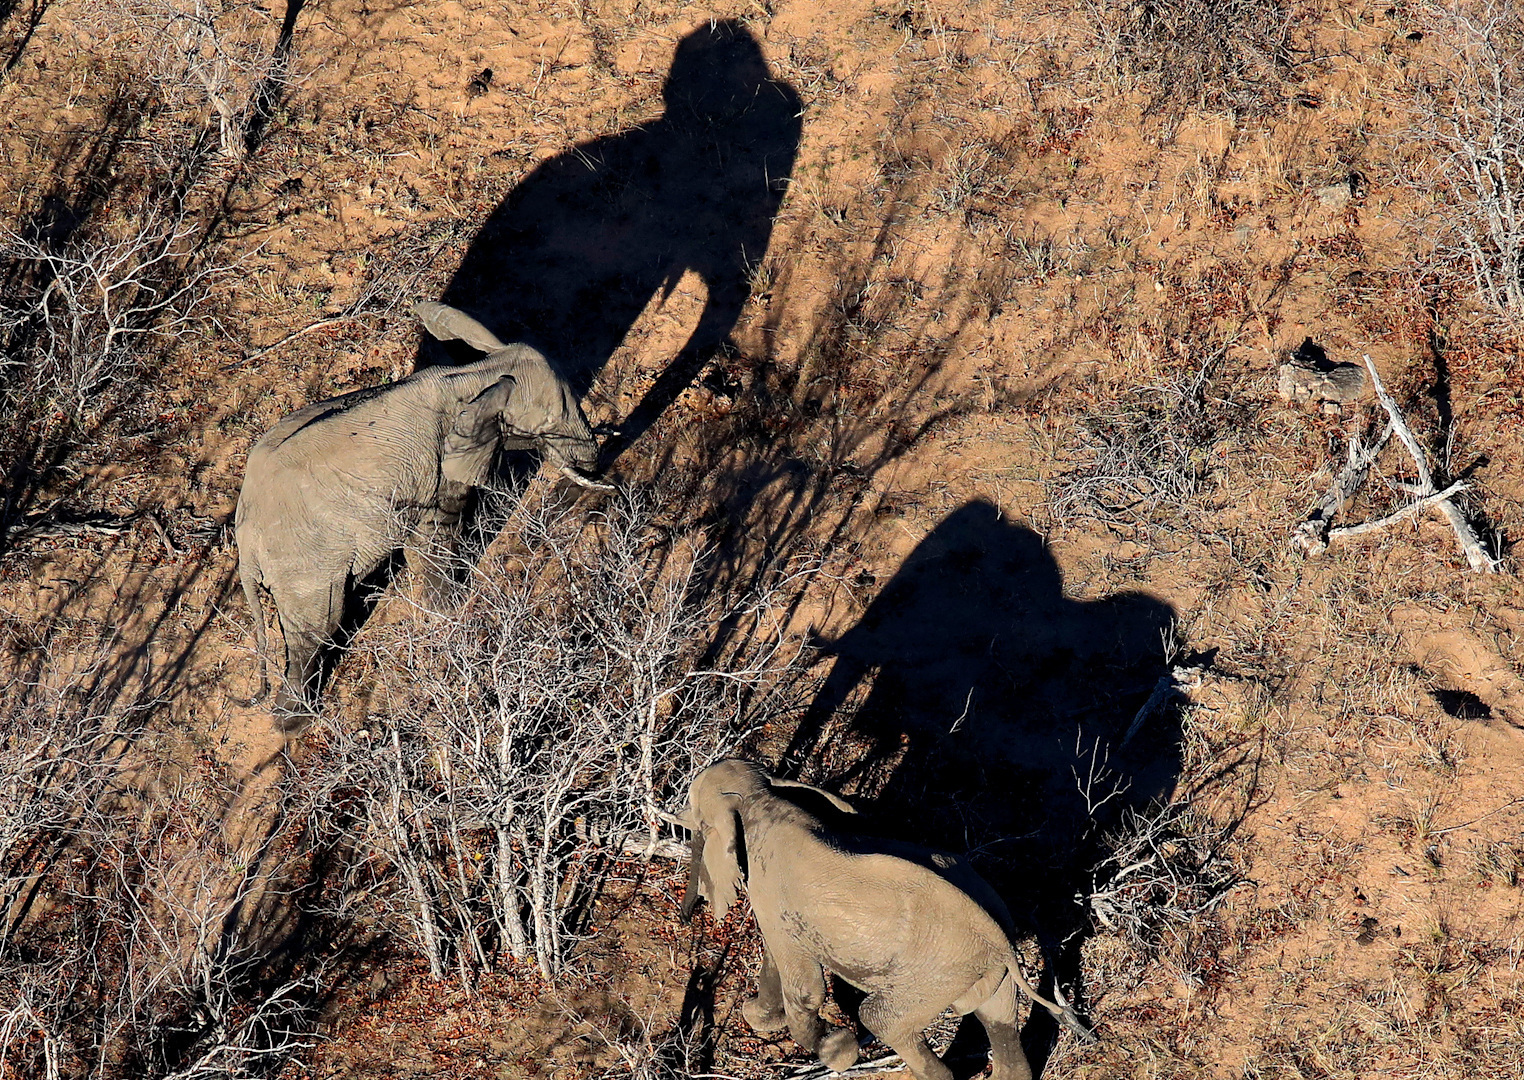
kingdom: Animalia
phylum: Chordata
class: Mammalia
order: Proboscidea
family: Elephantidae
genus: Loxodonta
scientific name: Loxodonta africana
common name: African elephant
